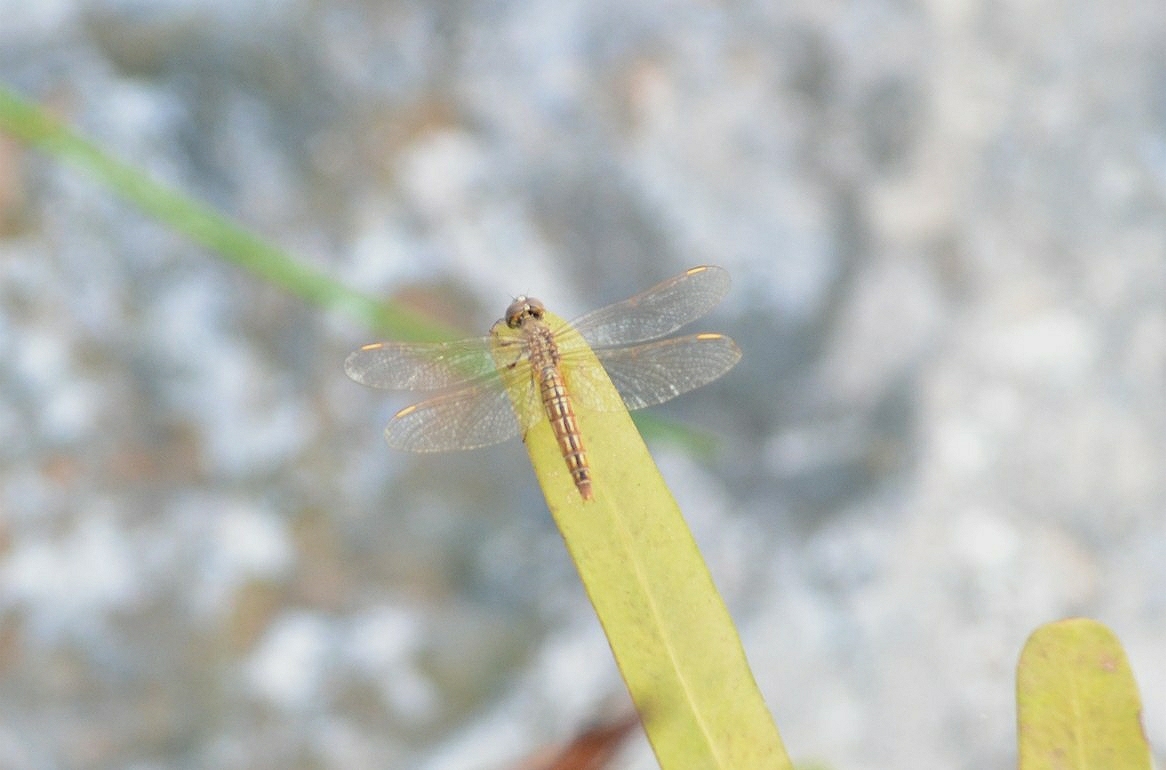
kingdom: Animalia
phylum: Arthropoda
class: Insecta
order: Odonata
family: Libellulidae
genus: Brachythemis
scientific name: Brachythemis contaminata
